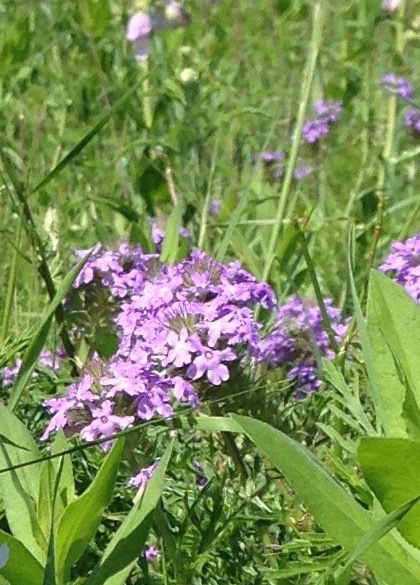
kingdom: Plantae
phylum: Tracheophyta
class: Magnoliopsida
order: Lamiales
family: Verbenaceae
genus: Verbena
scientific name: Verbena bipinnatifida
